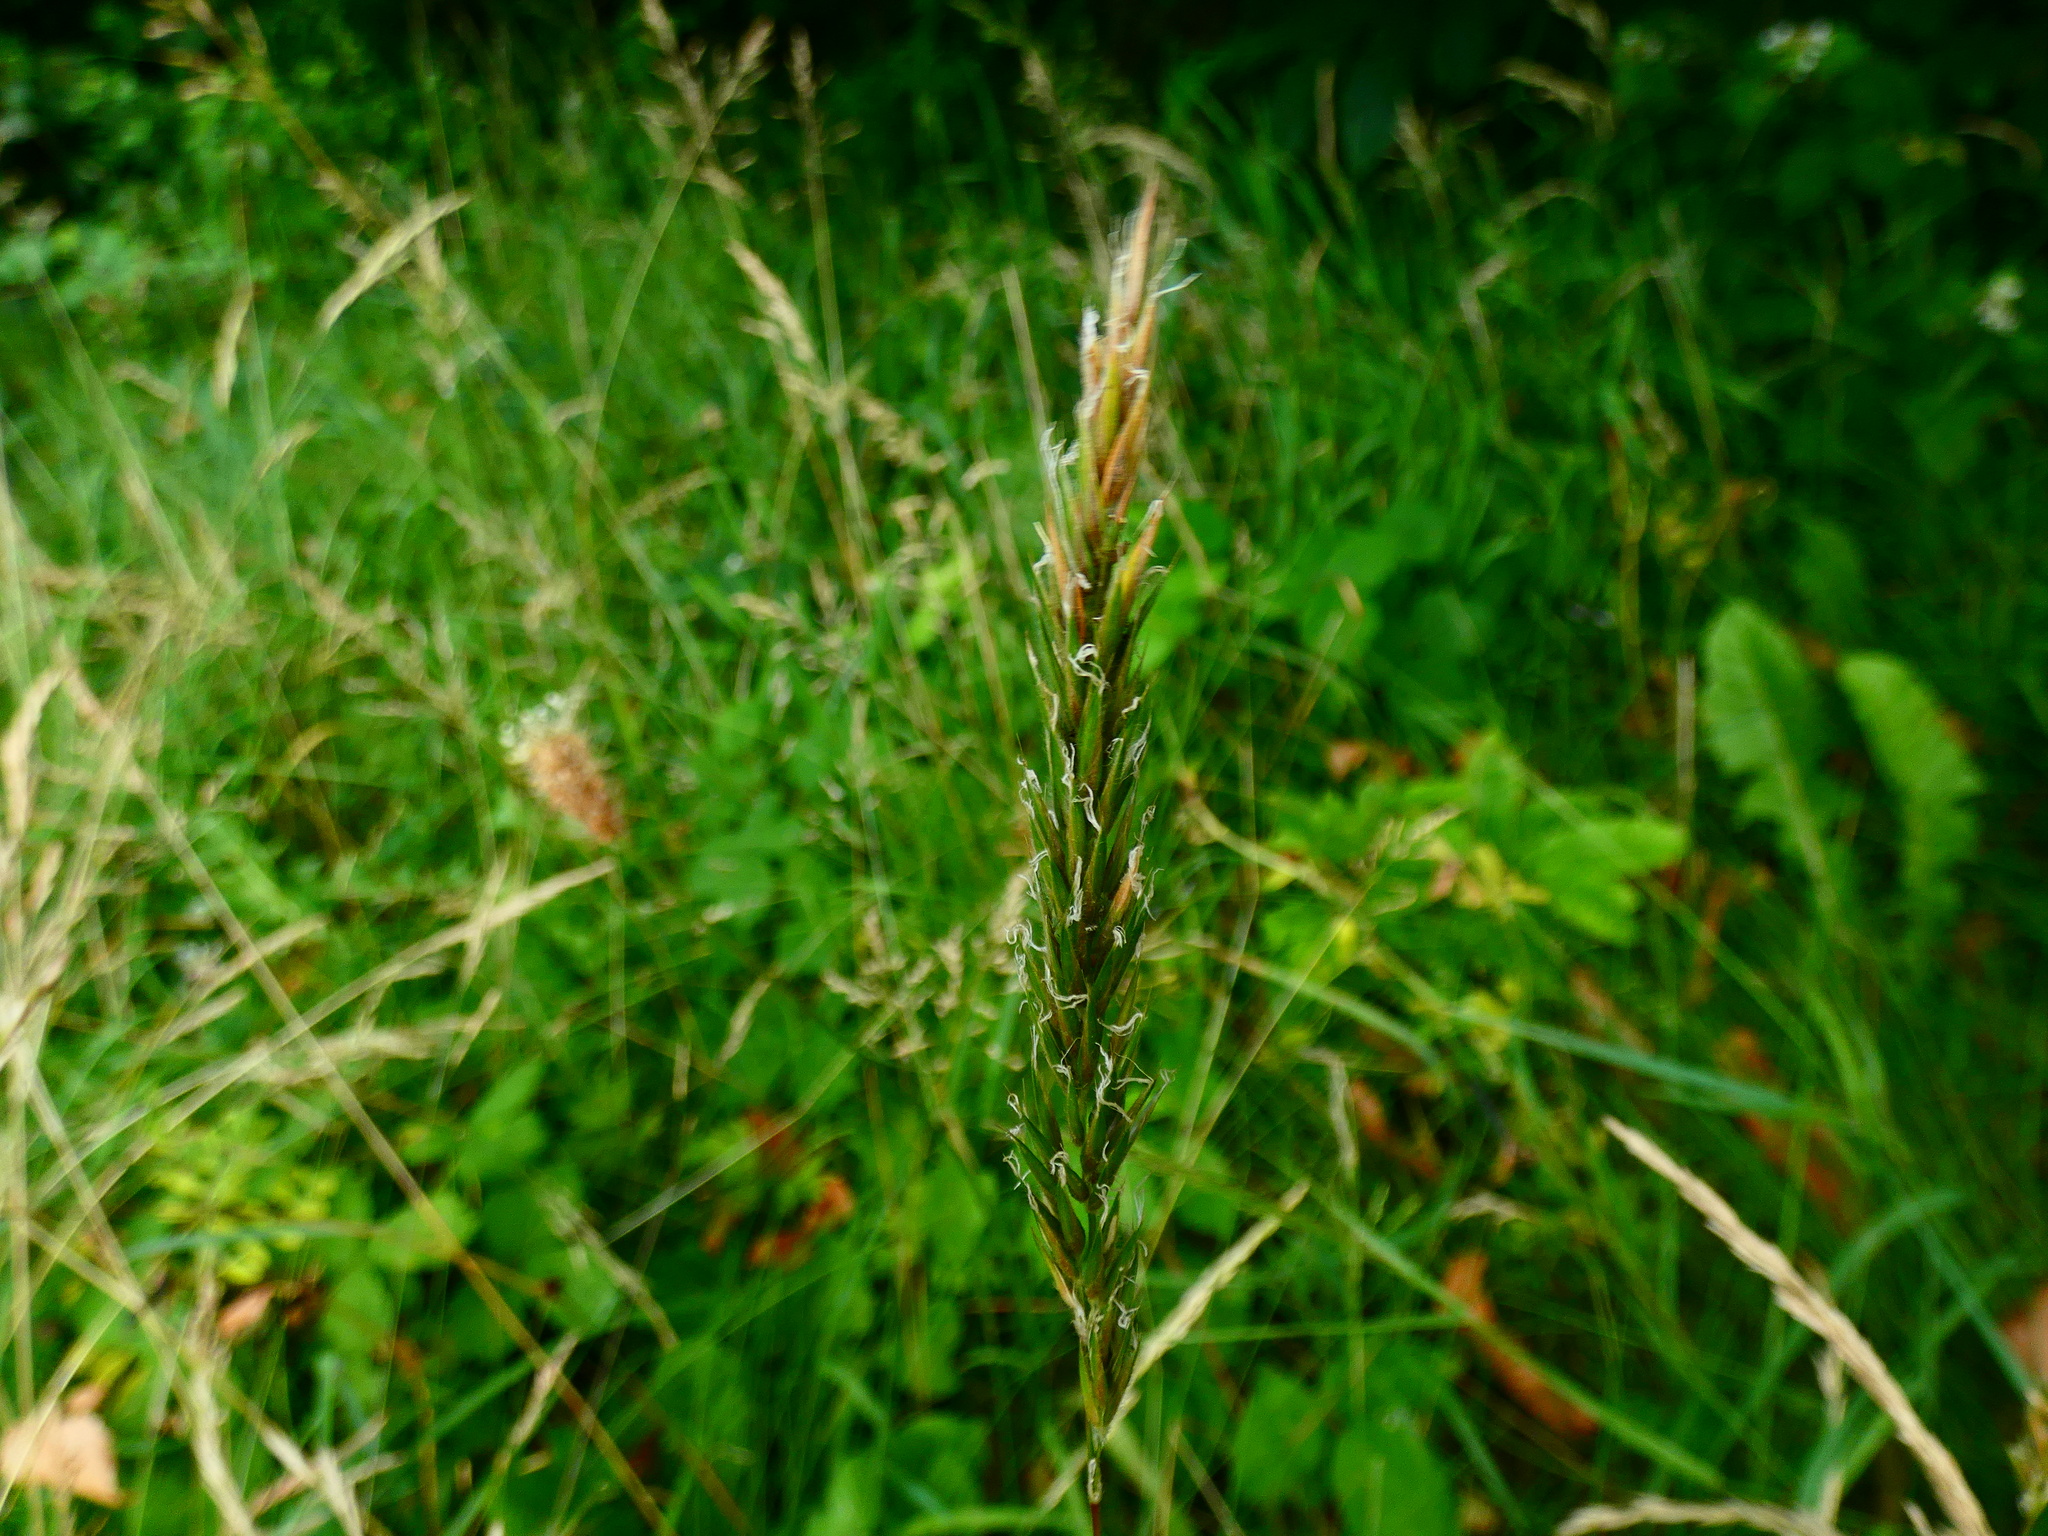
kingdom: Plantae
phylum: Tracheophyta
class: Liliopsida
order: Poales
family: Poaceae
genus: Anthoxanthum
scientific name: Anthoxanthum odoratum
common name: Sweet vernalgrass
